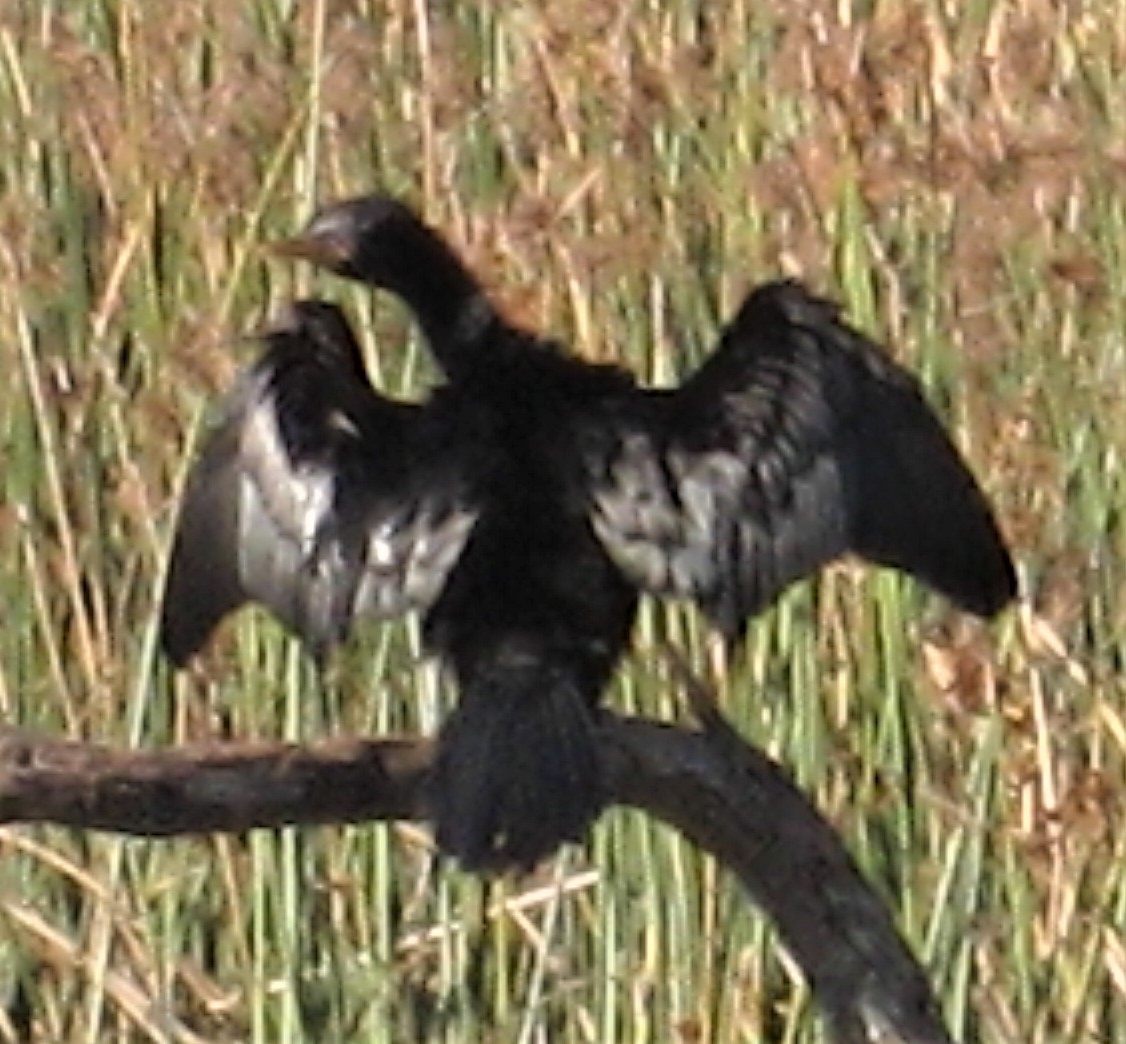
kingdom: Animalia
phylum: Chordata
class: Aves
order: Suliformes
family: Phalacrocoracidae
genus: Microcarbo
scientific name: Microcarbo africanus
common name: Long-tailed cormorant
